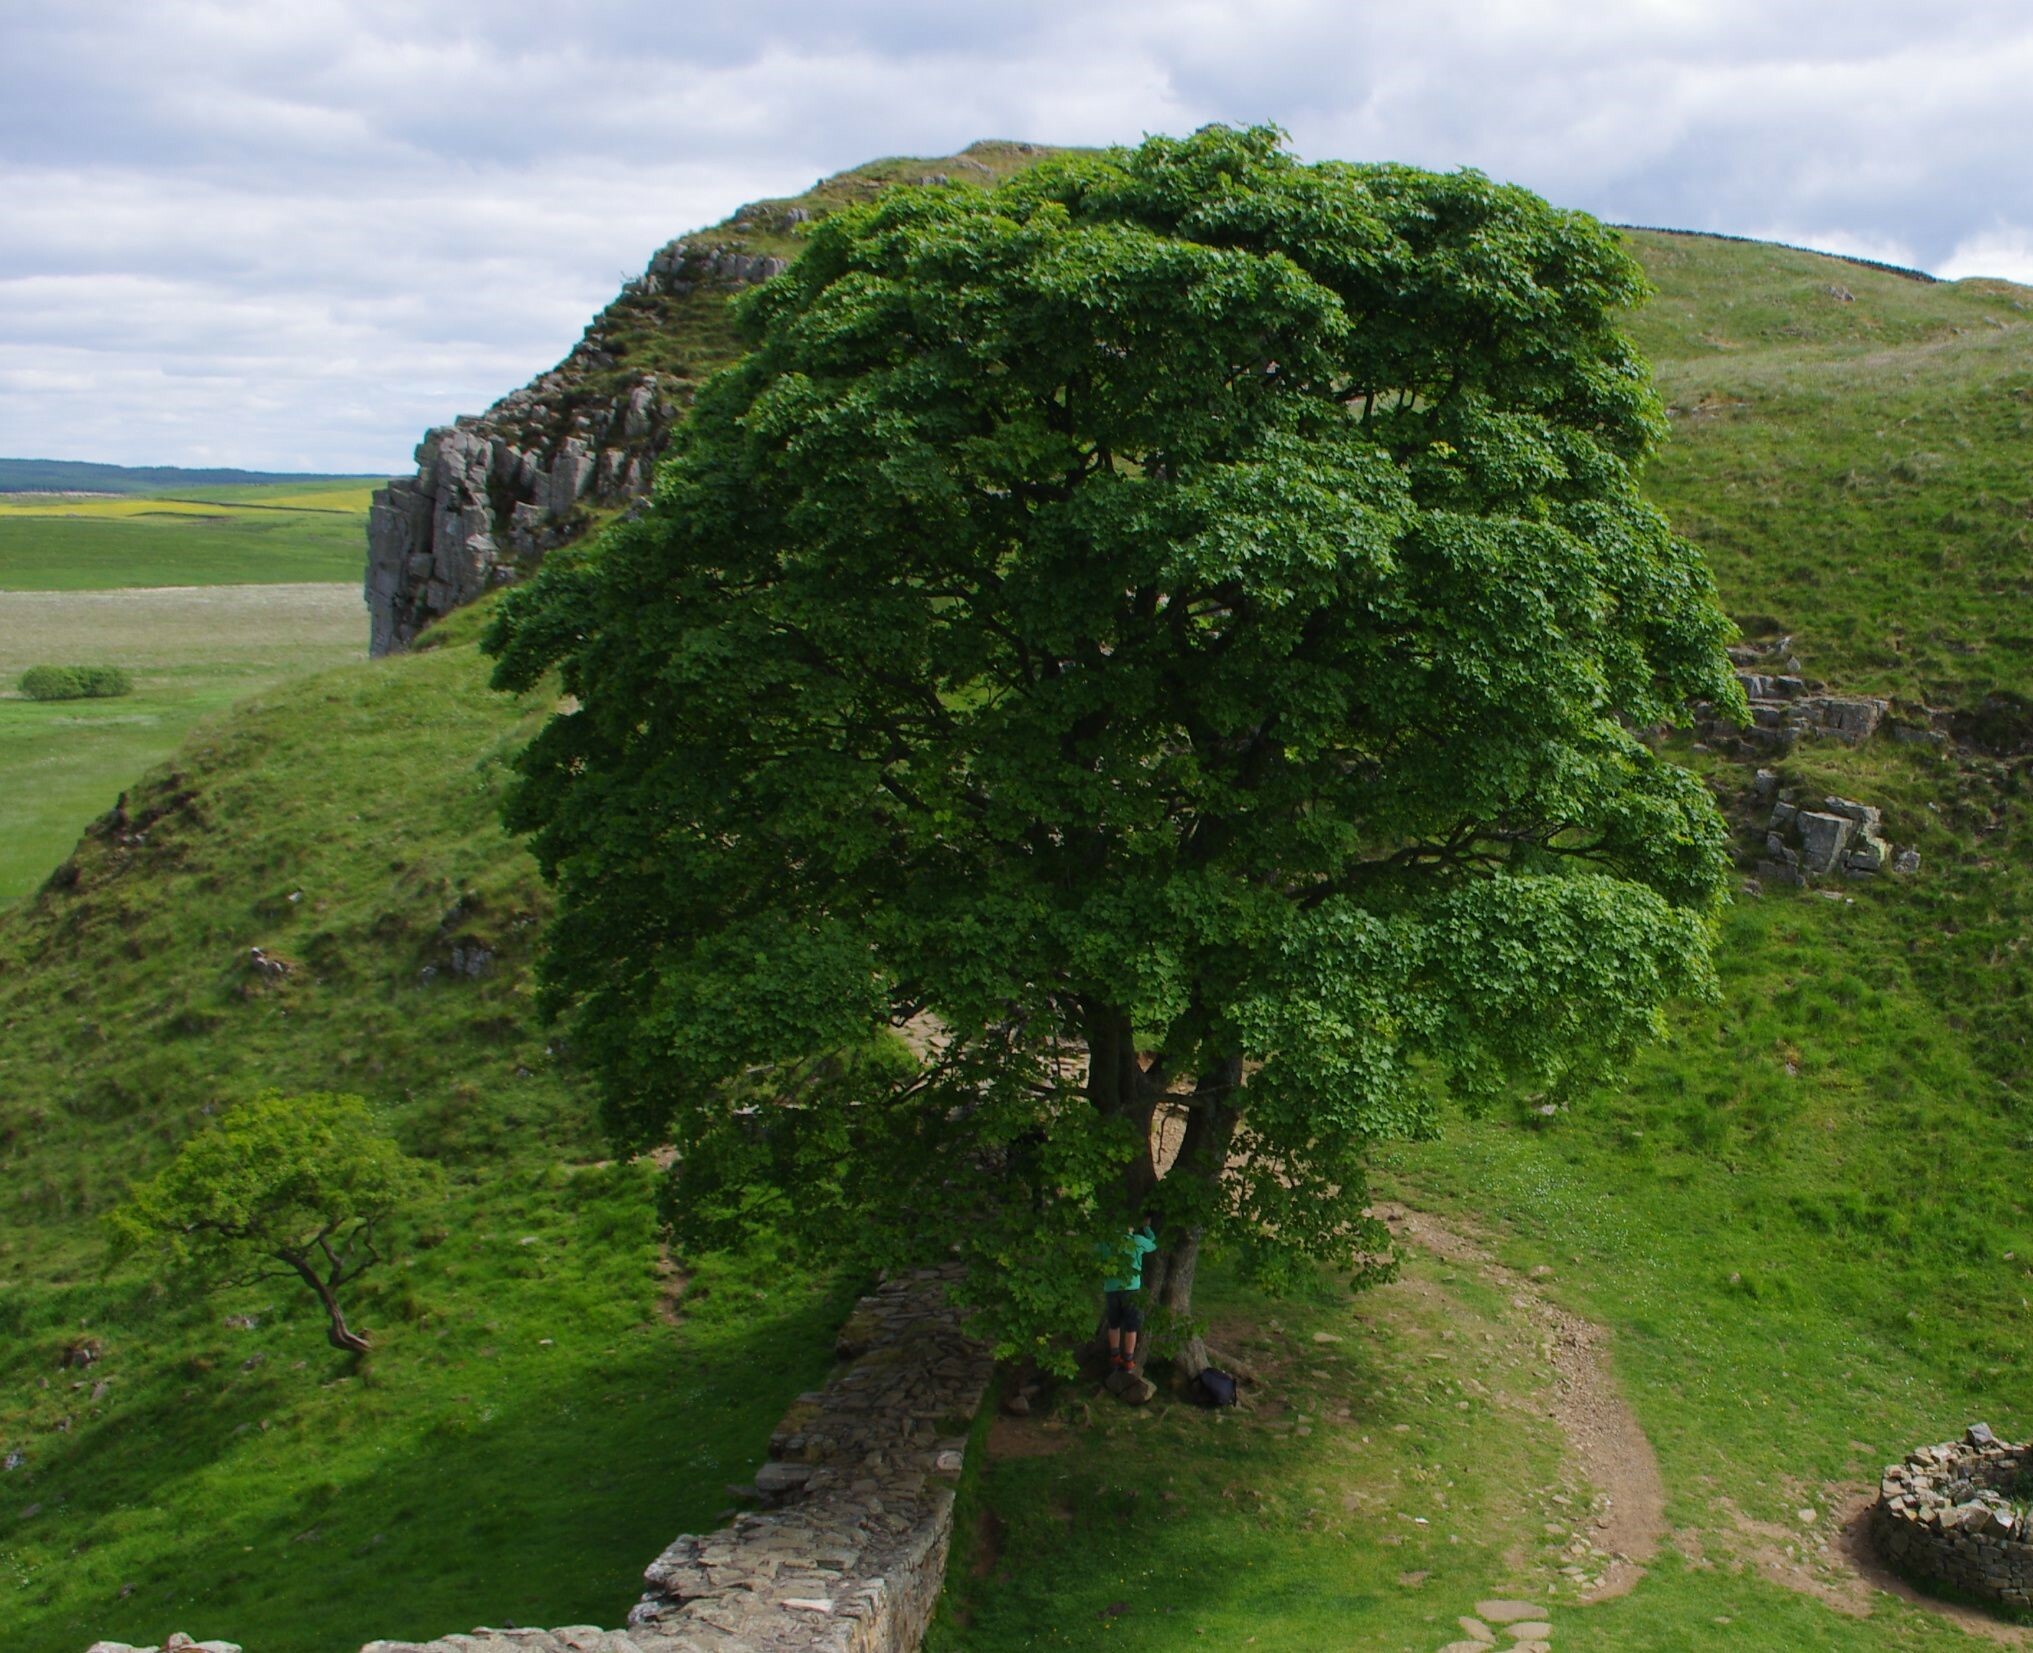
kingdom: Plantae
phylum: Tracheophyta
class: Magnoliopsida
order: Sapindales
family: Sapindaceae
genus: Acer
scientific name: Acer pseudoplatanus
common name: Sycamore
